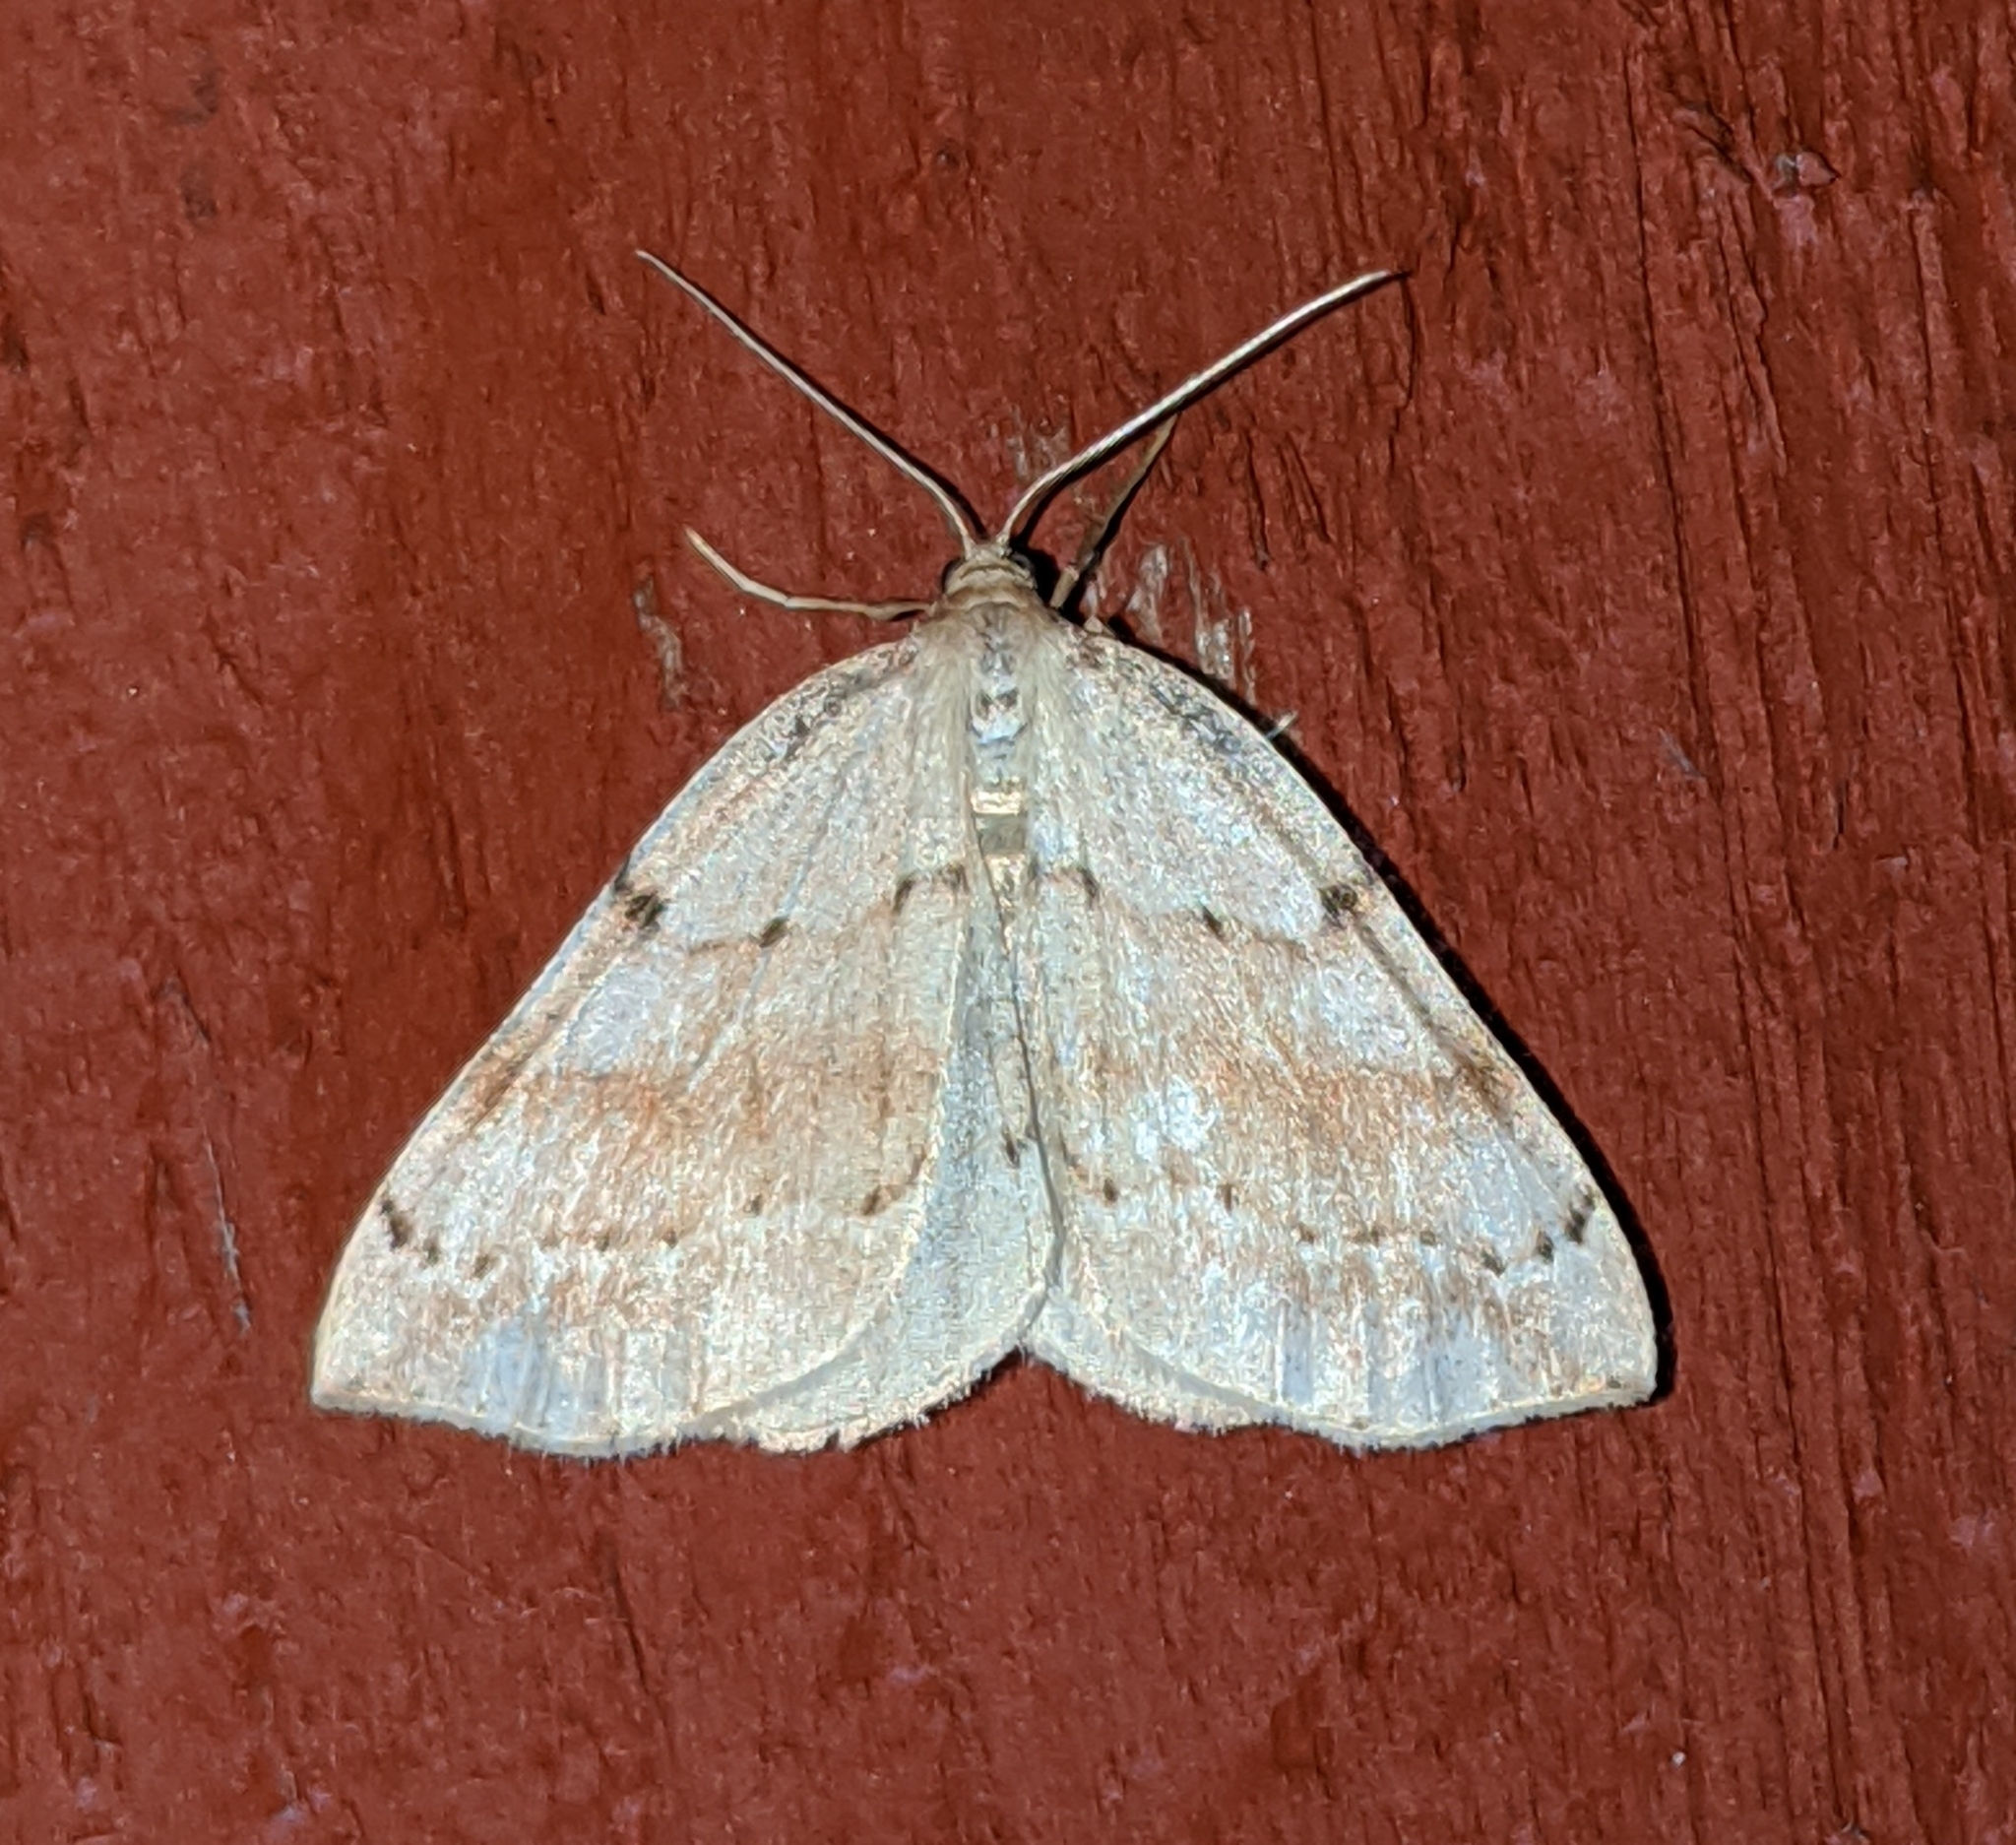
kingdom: Animalia
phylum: Arthropoda
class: Insecta
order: Lepidoptera
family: Geometridae
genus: Thallophaga
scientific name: Thallophaga hyperborea
